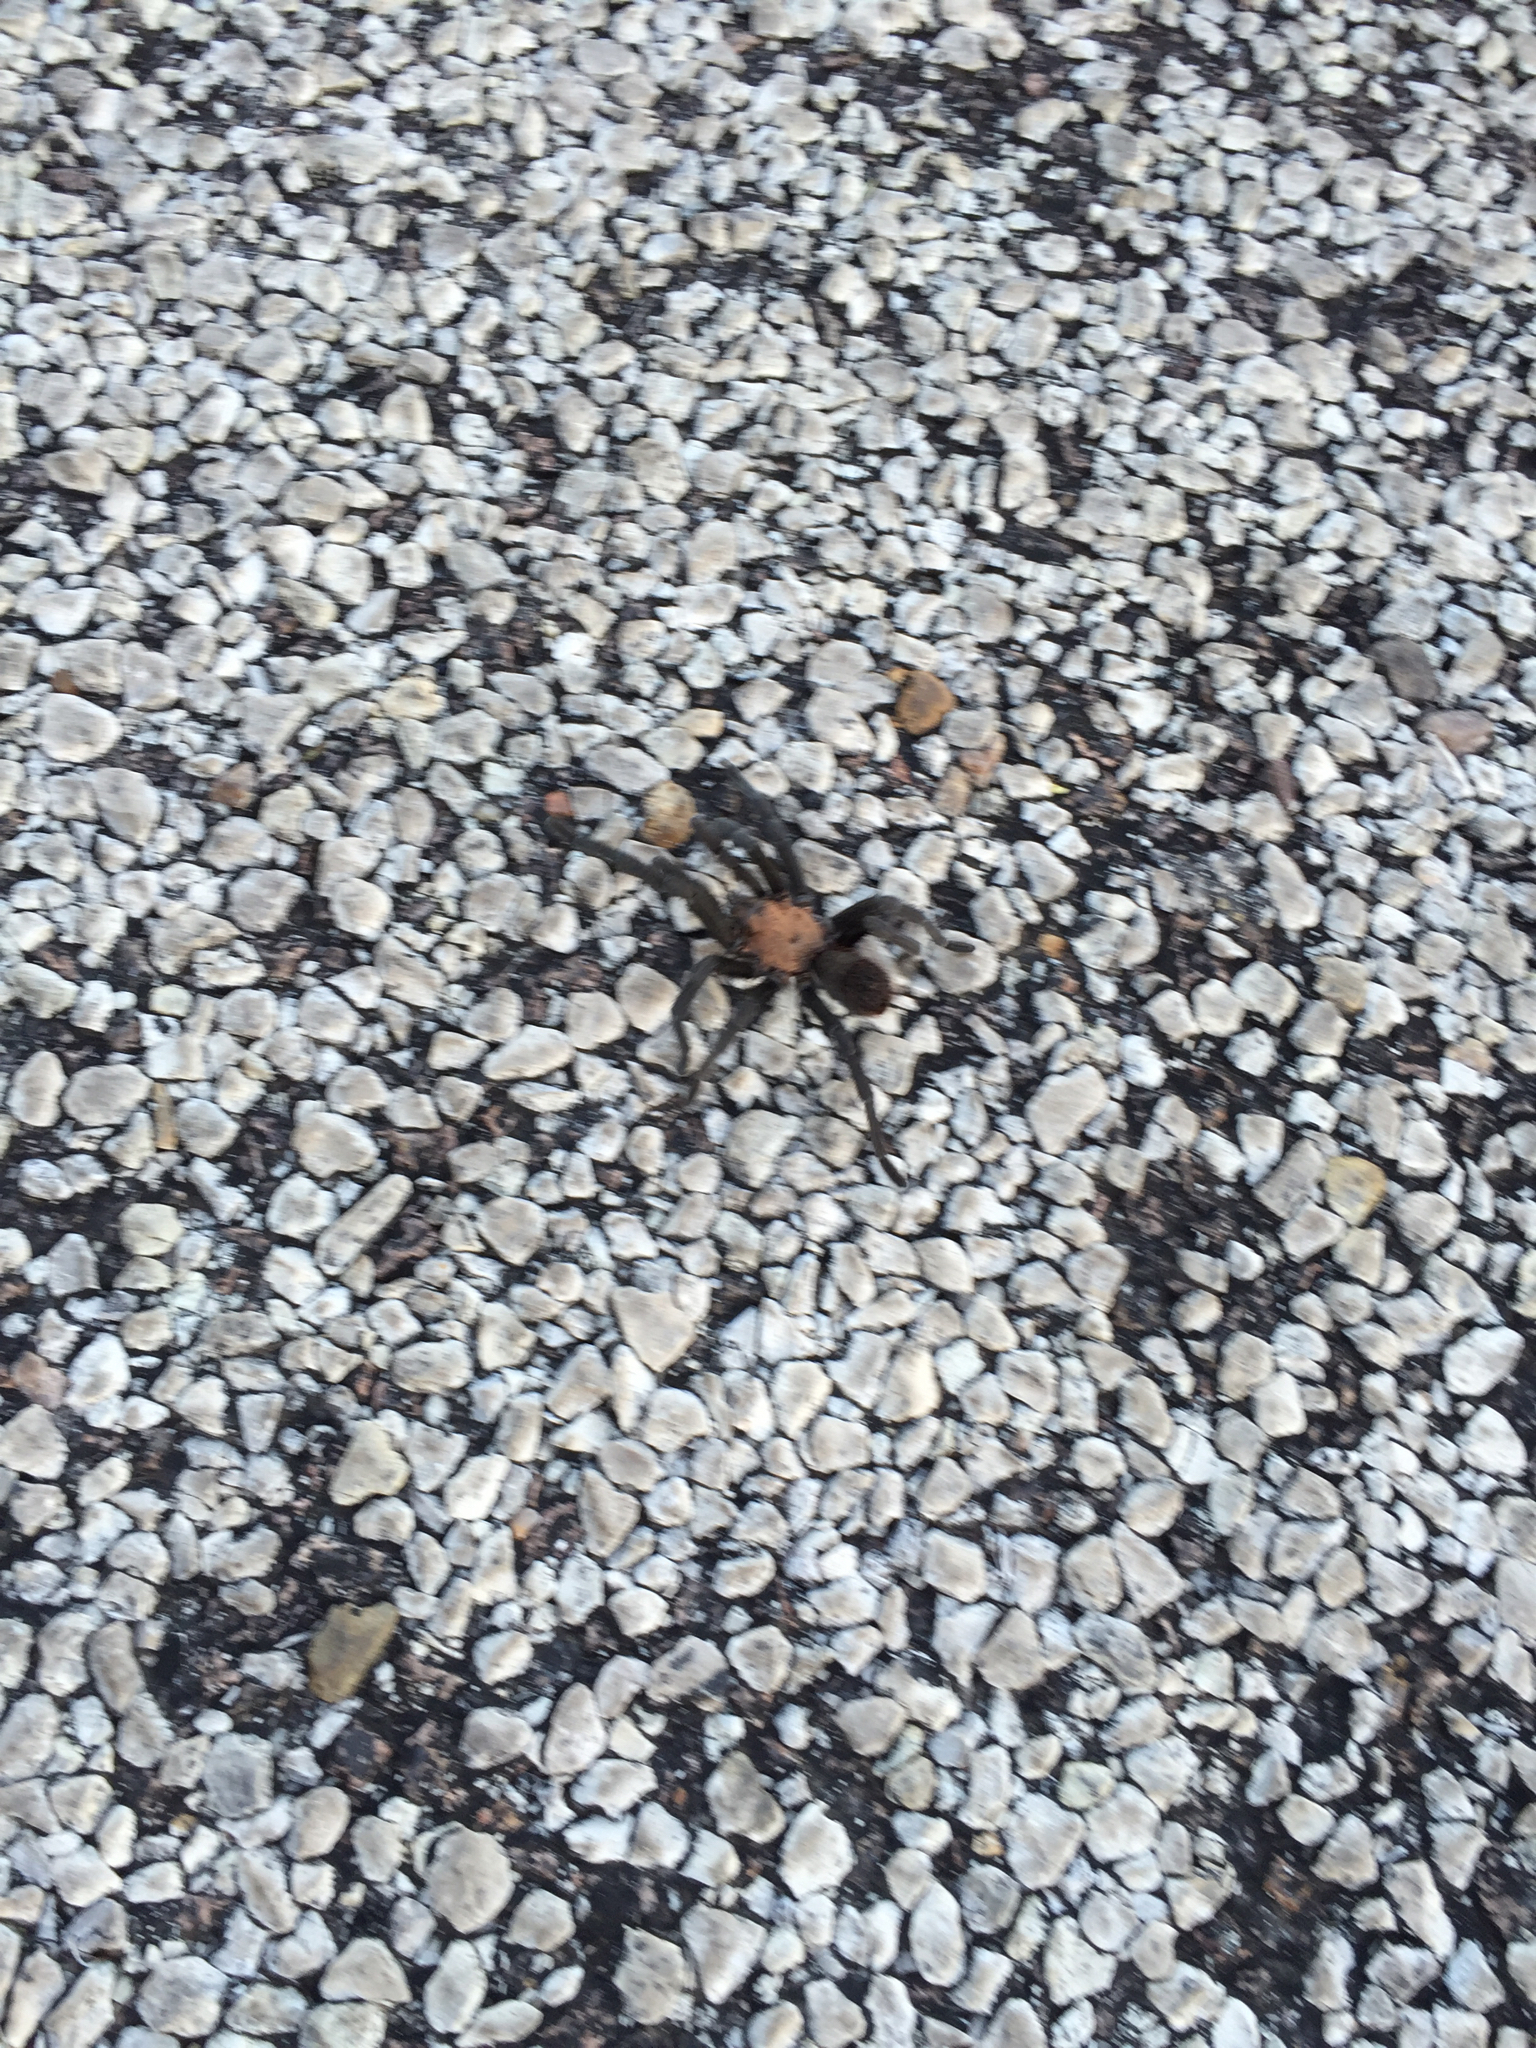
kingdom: Animalia
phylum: Arthropoda
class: Arachnida
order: Araneae
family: Theraphosidae
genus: Aphonopelma
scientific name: Aphonopelma hentzi
